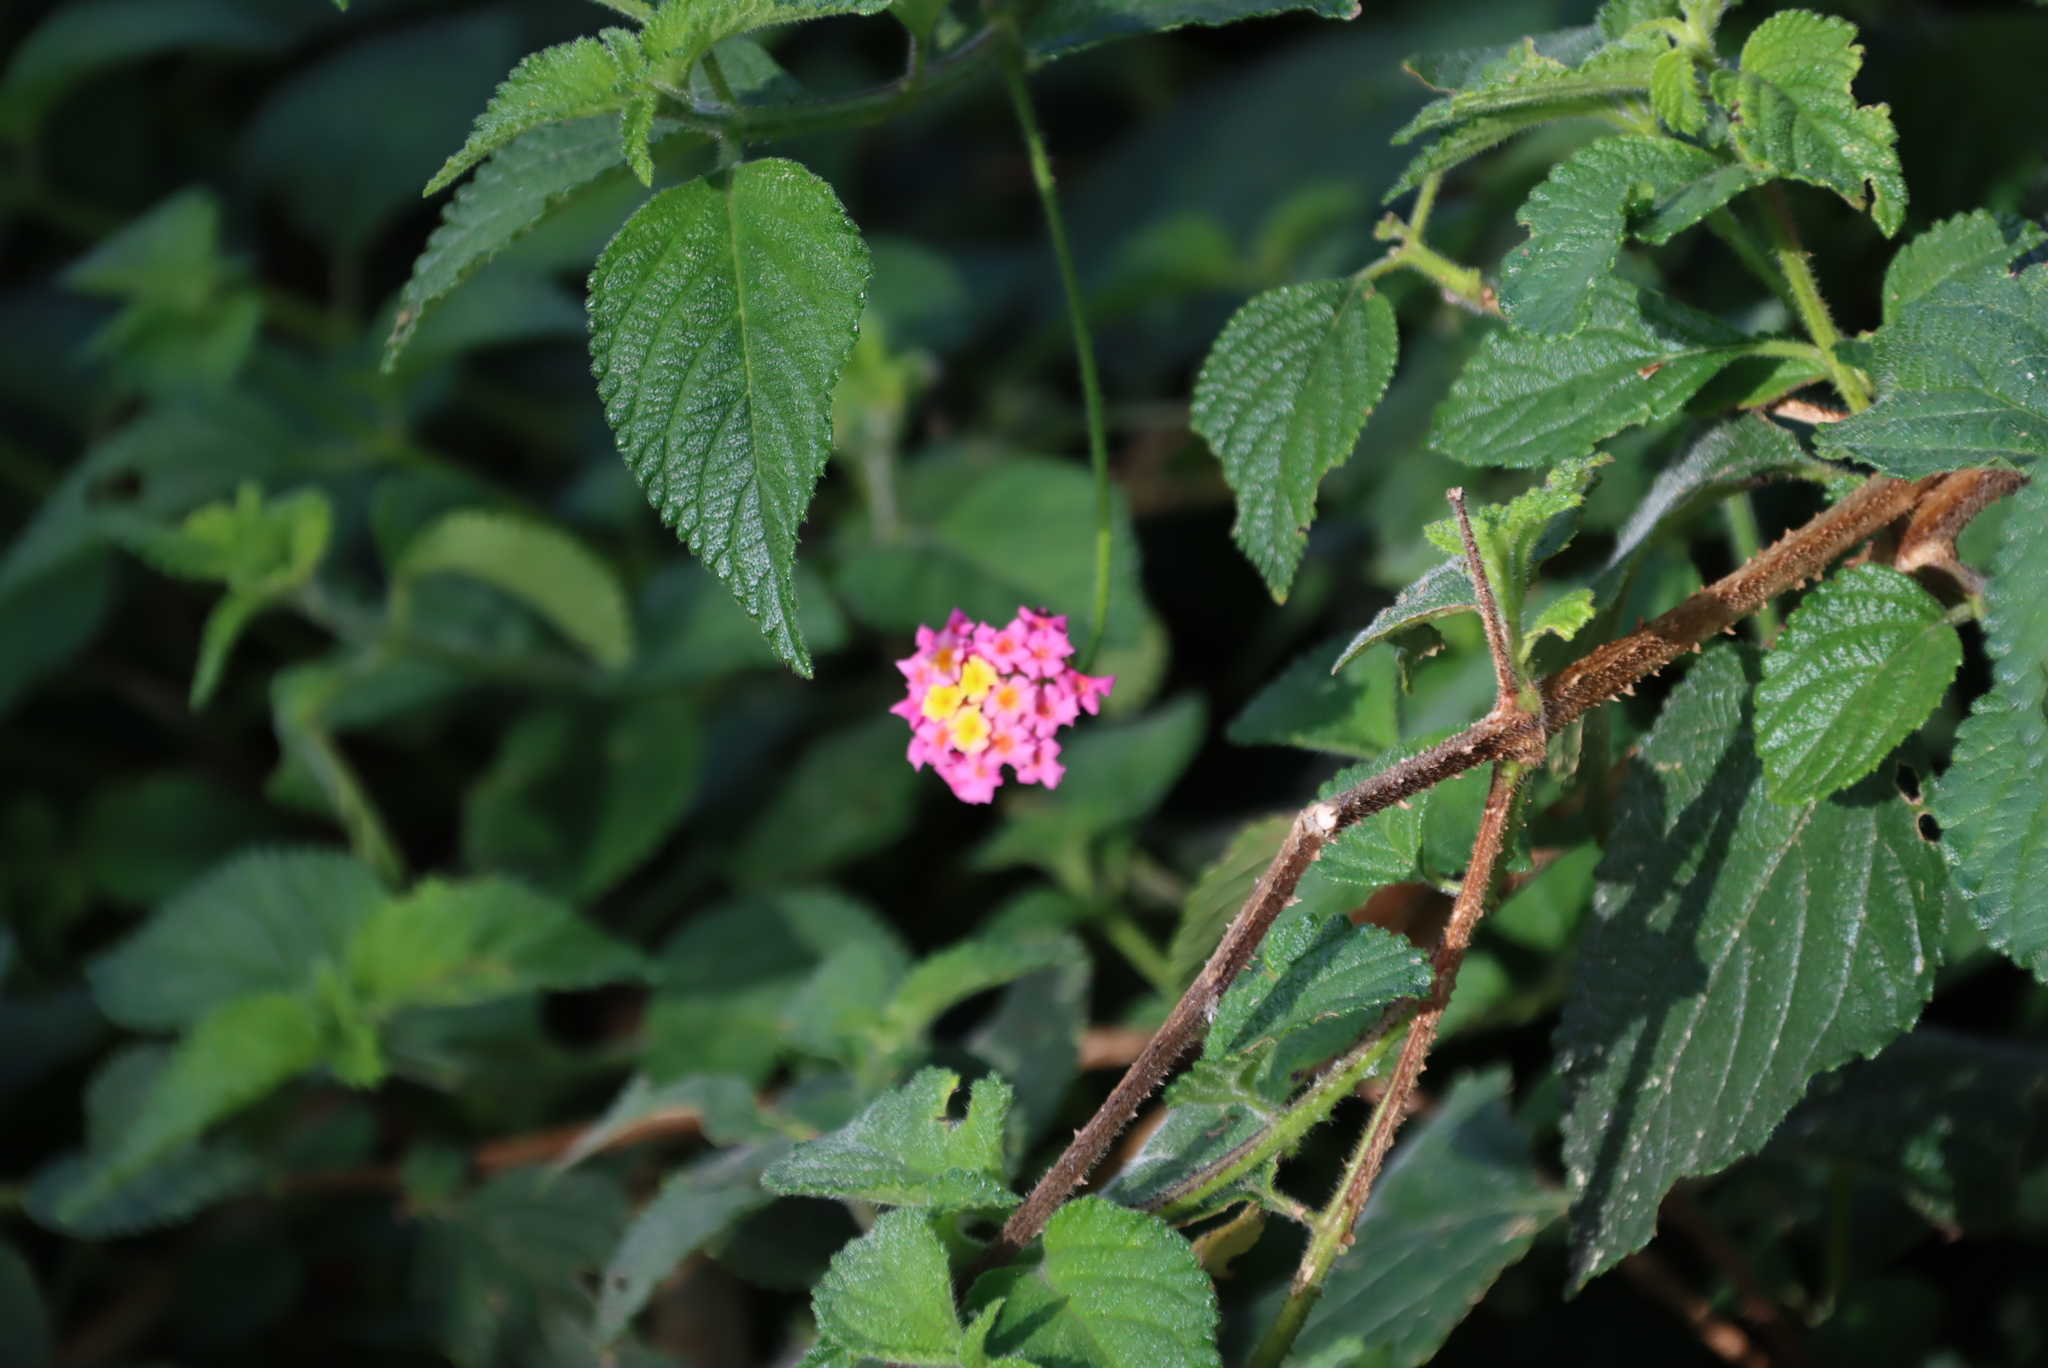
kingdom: Plantae
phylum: Tracheophyta
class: Magnoliopsida
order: Lamiales
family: Verbenaceae
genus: Lantana
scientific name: Lantana camara
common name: Lantana
